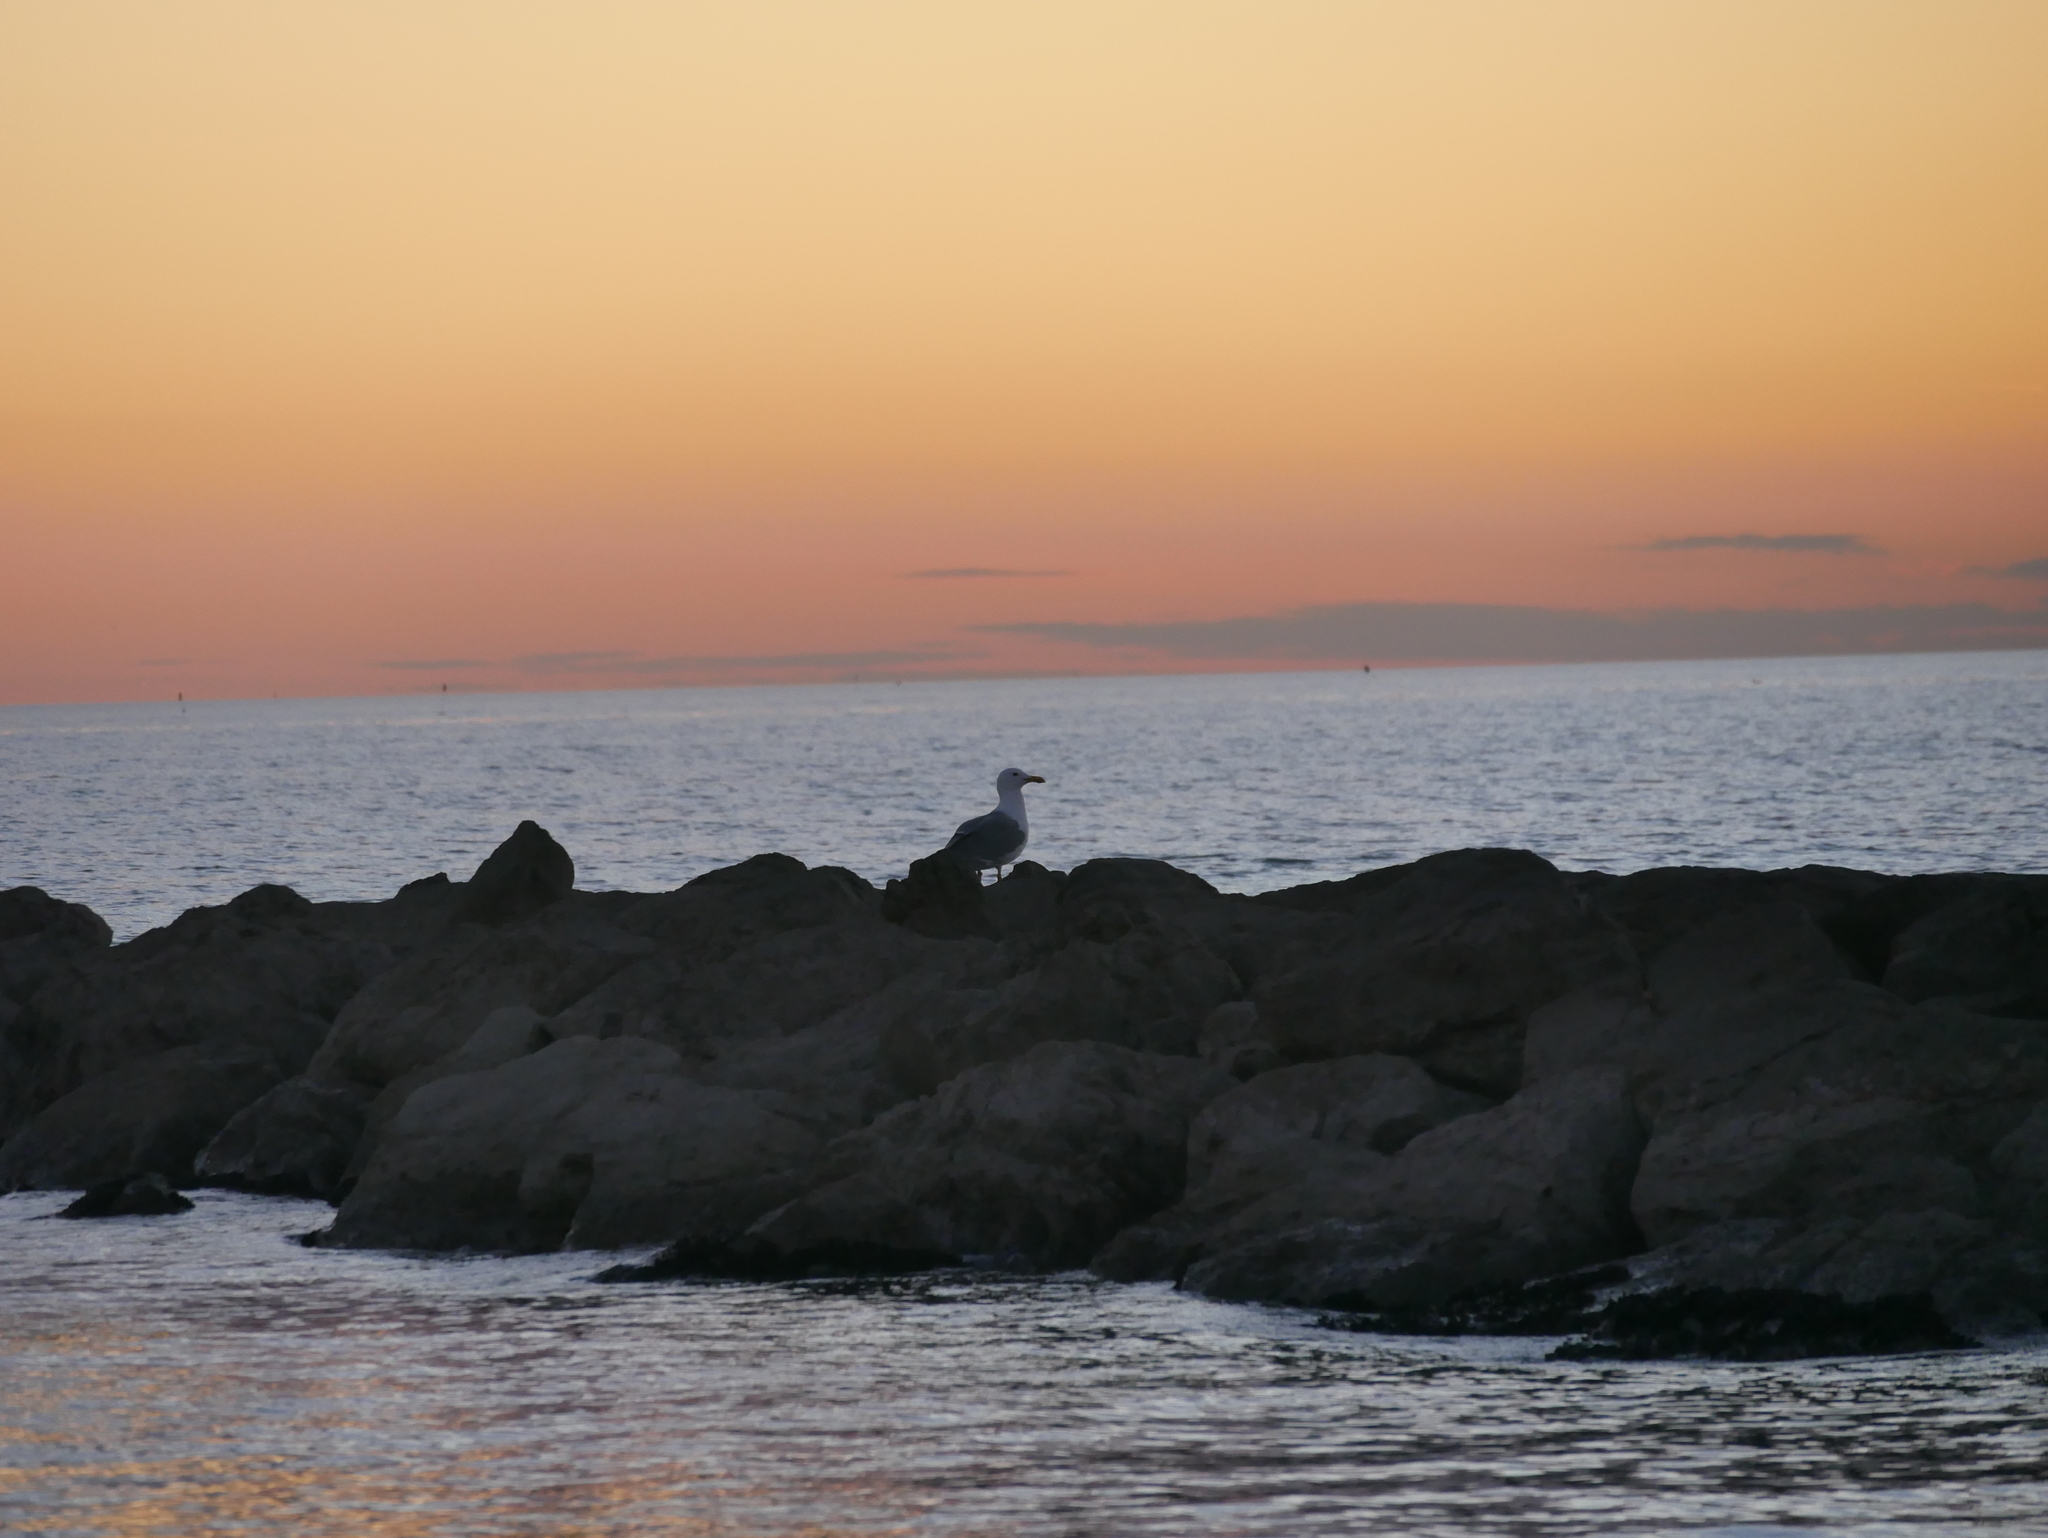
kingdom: Animalia
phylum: Chordata
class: Aves
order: Charadriiformes
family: Laridae
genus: Larus
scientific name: Larus michahellis
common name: Yellow-legged gull
